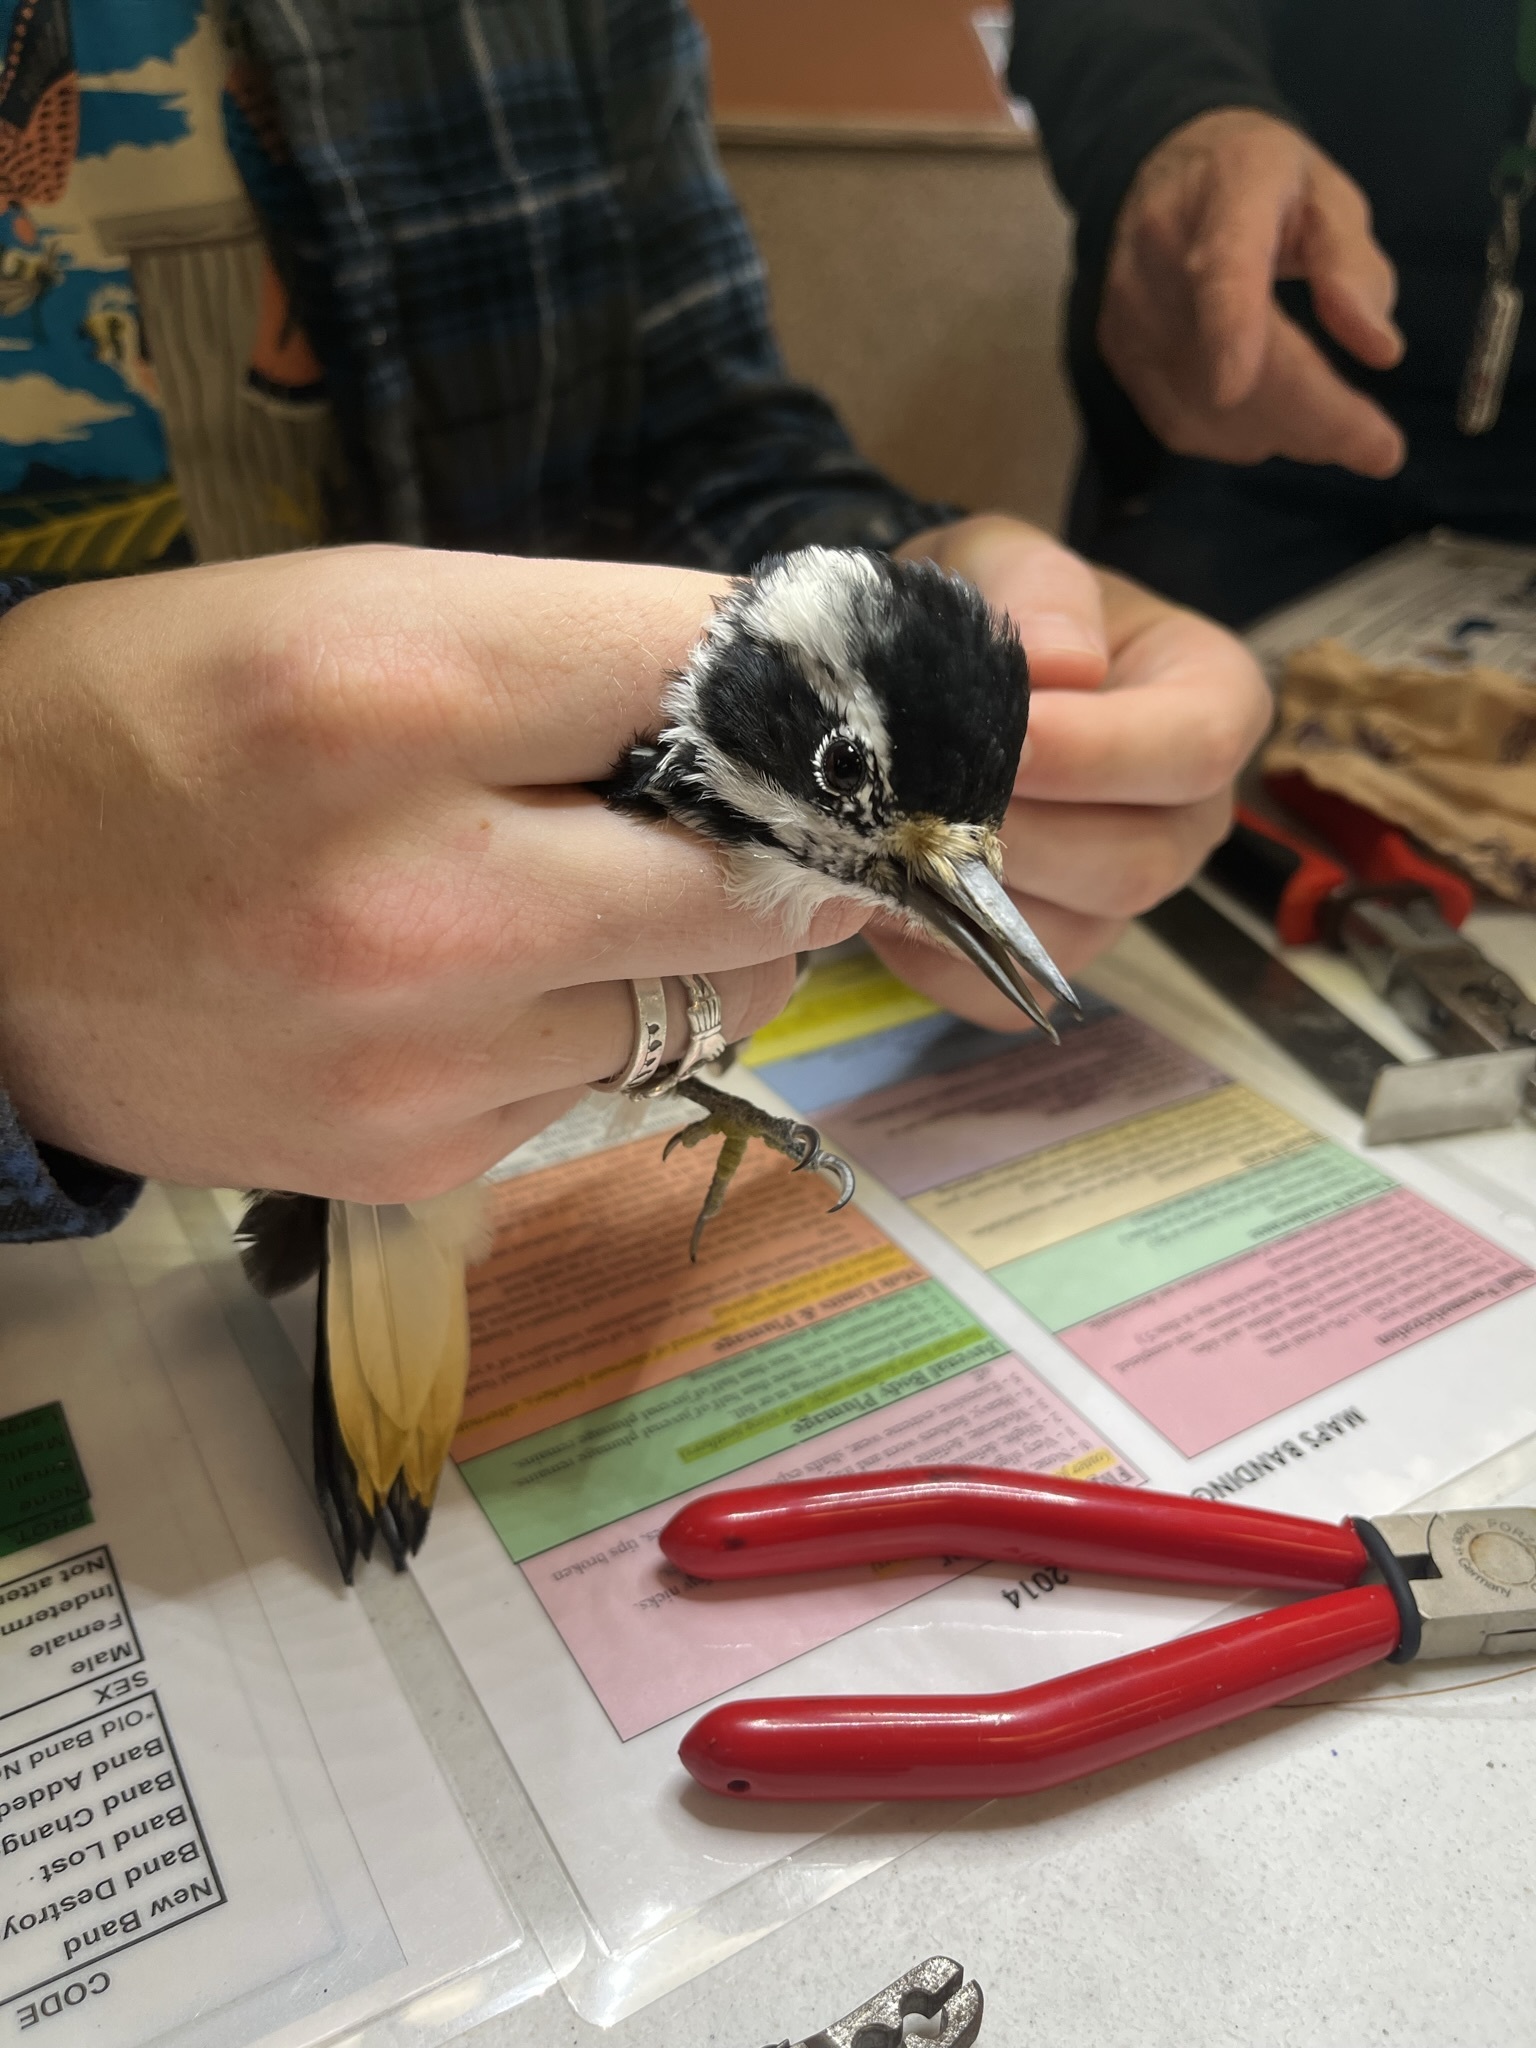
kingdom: Animalia
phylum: Chordata
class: Aves
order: Piciformes
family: Picidae
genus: Leuconotopicus
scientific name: Leuconotopicus villosus
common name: Hairy woodpecker
